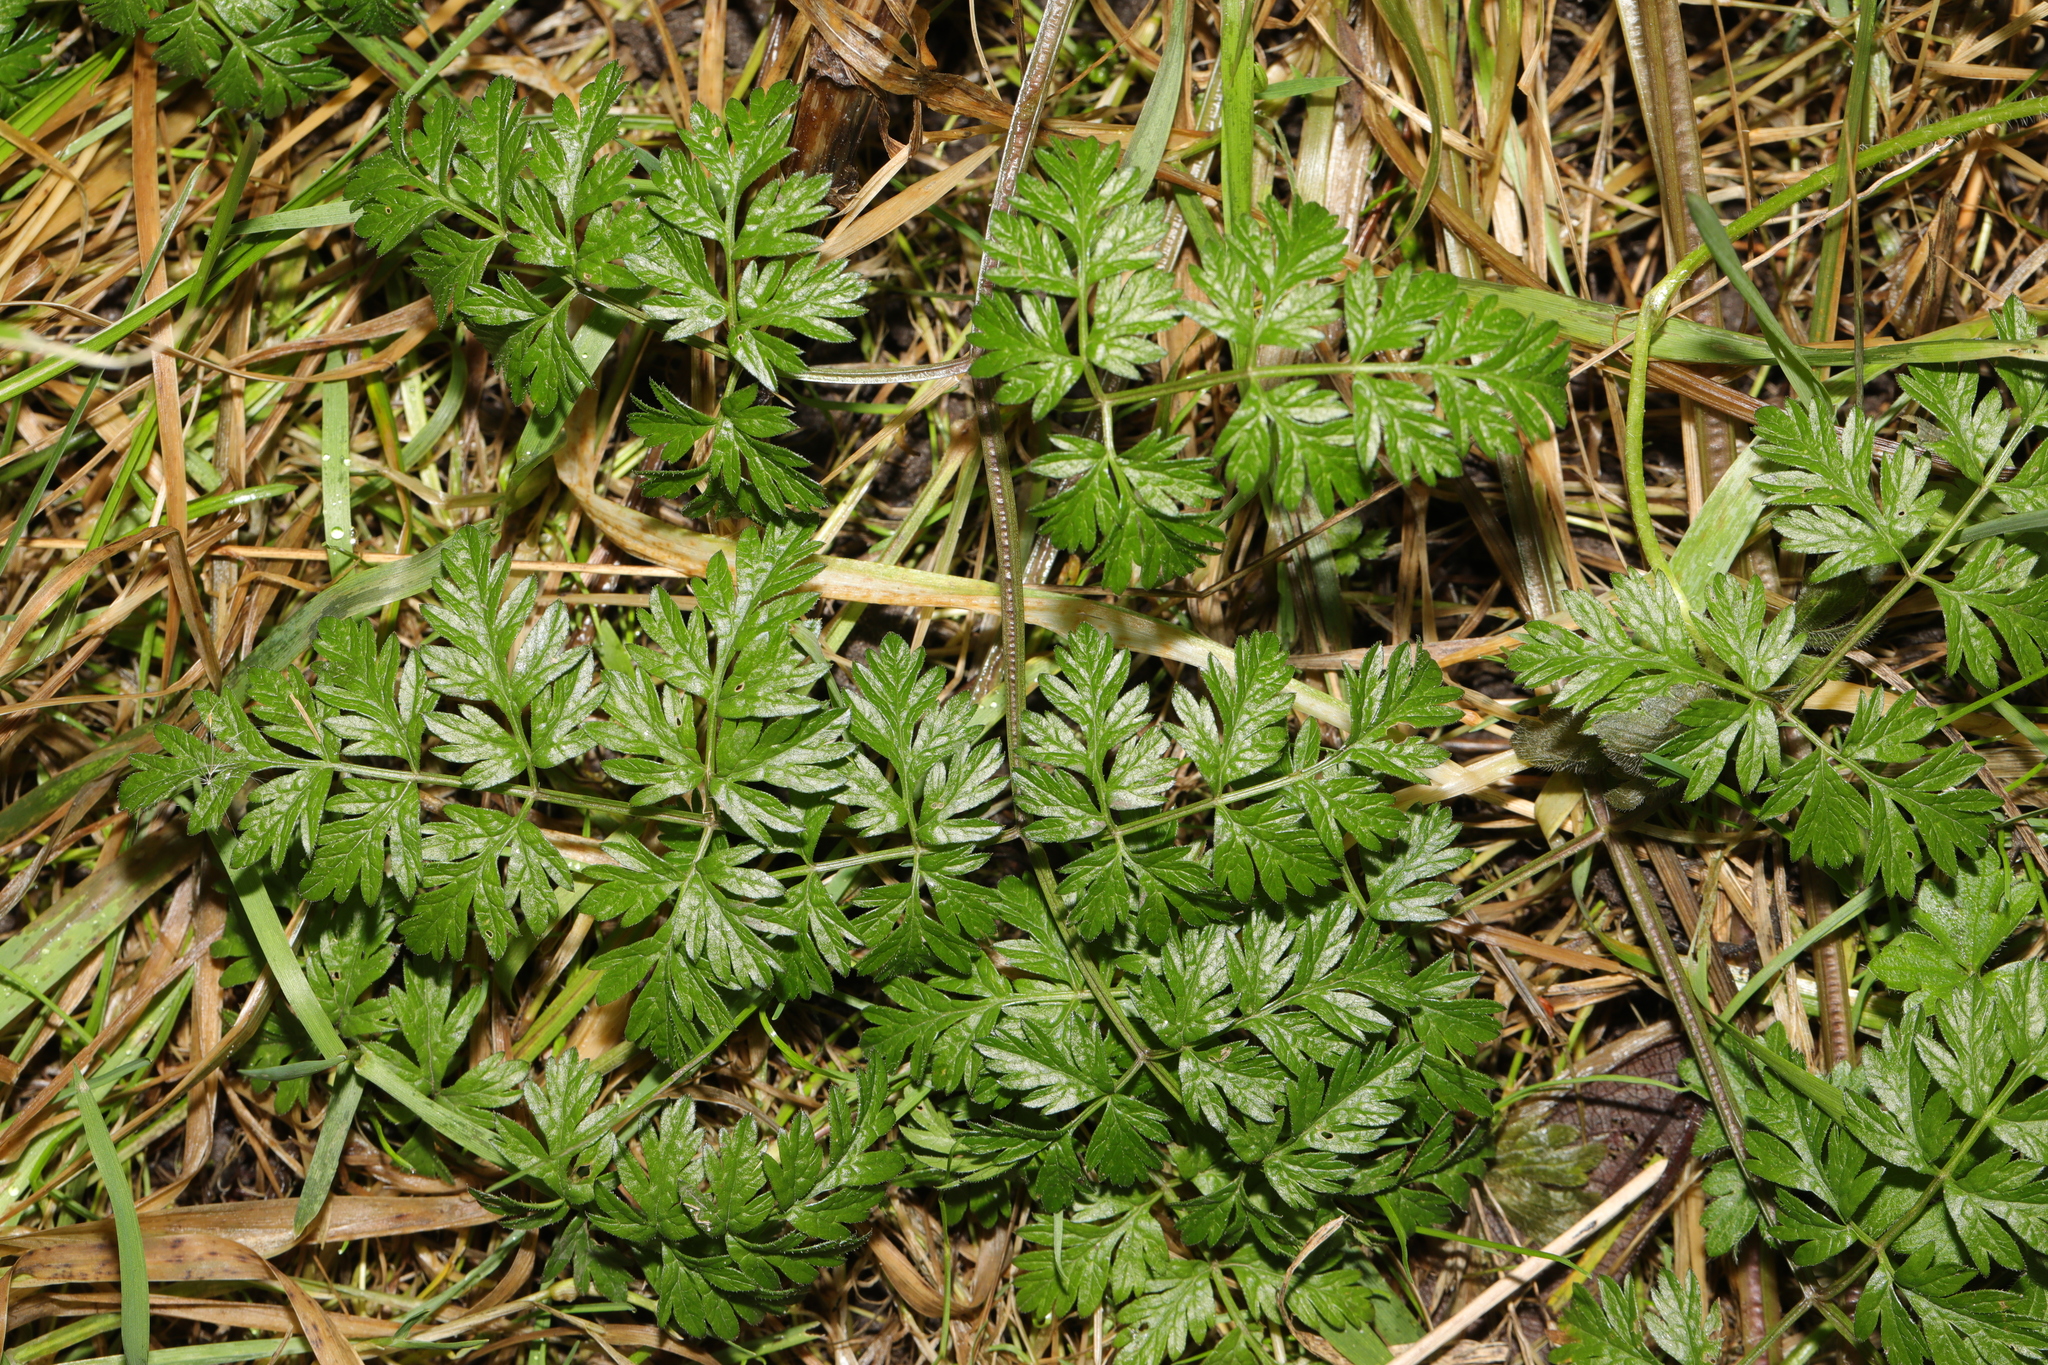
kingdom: Plantae
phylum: Tracheophyta
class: Magnoliopsida
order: Apiales
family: Apiaceae
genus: Anthriscus
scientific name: Anthriscus sylvestris
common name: Cow parsley
